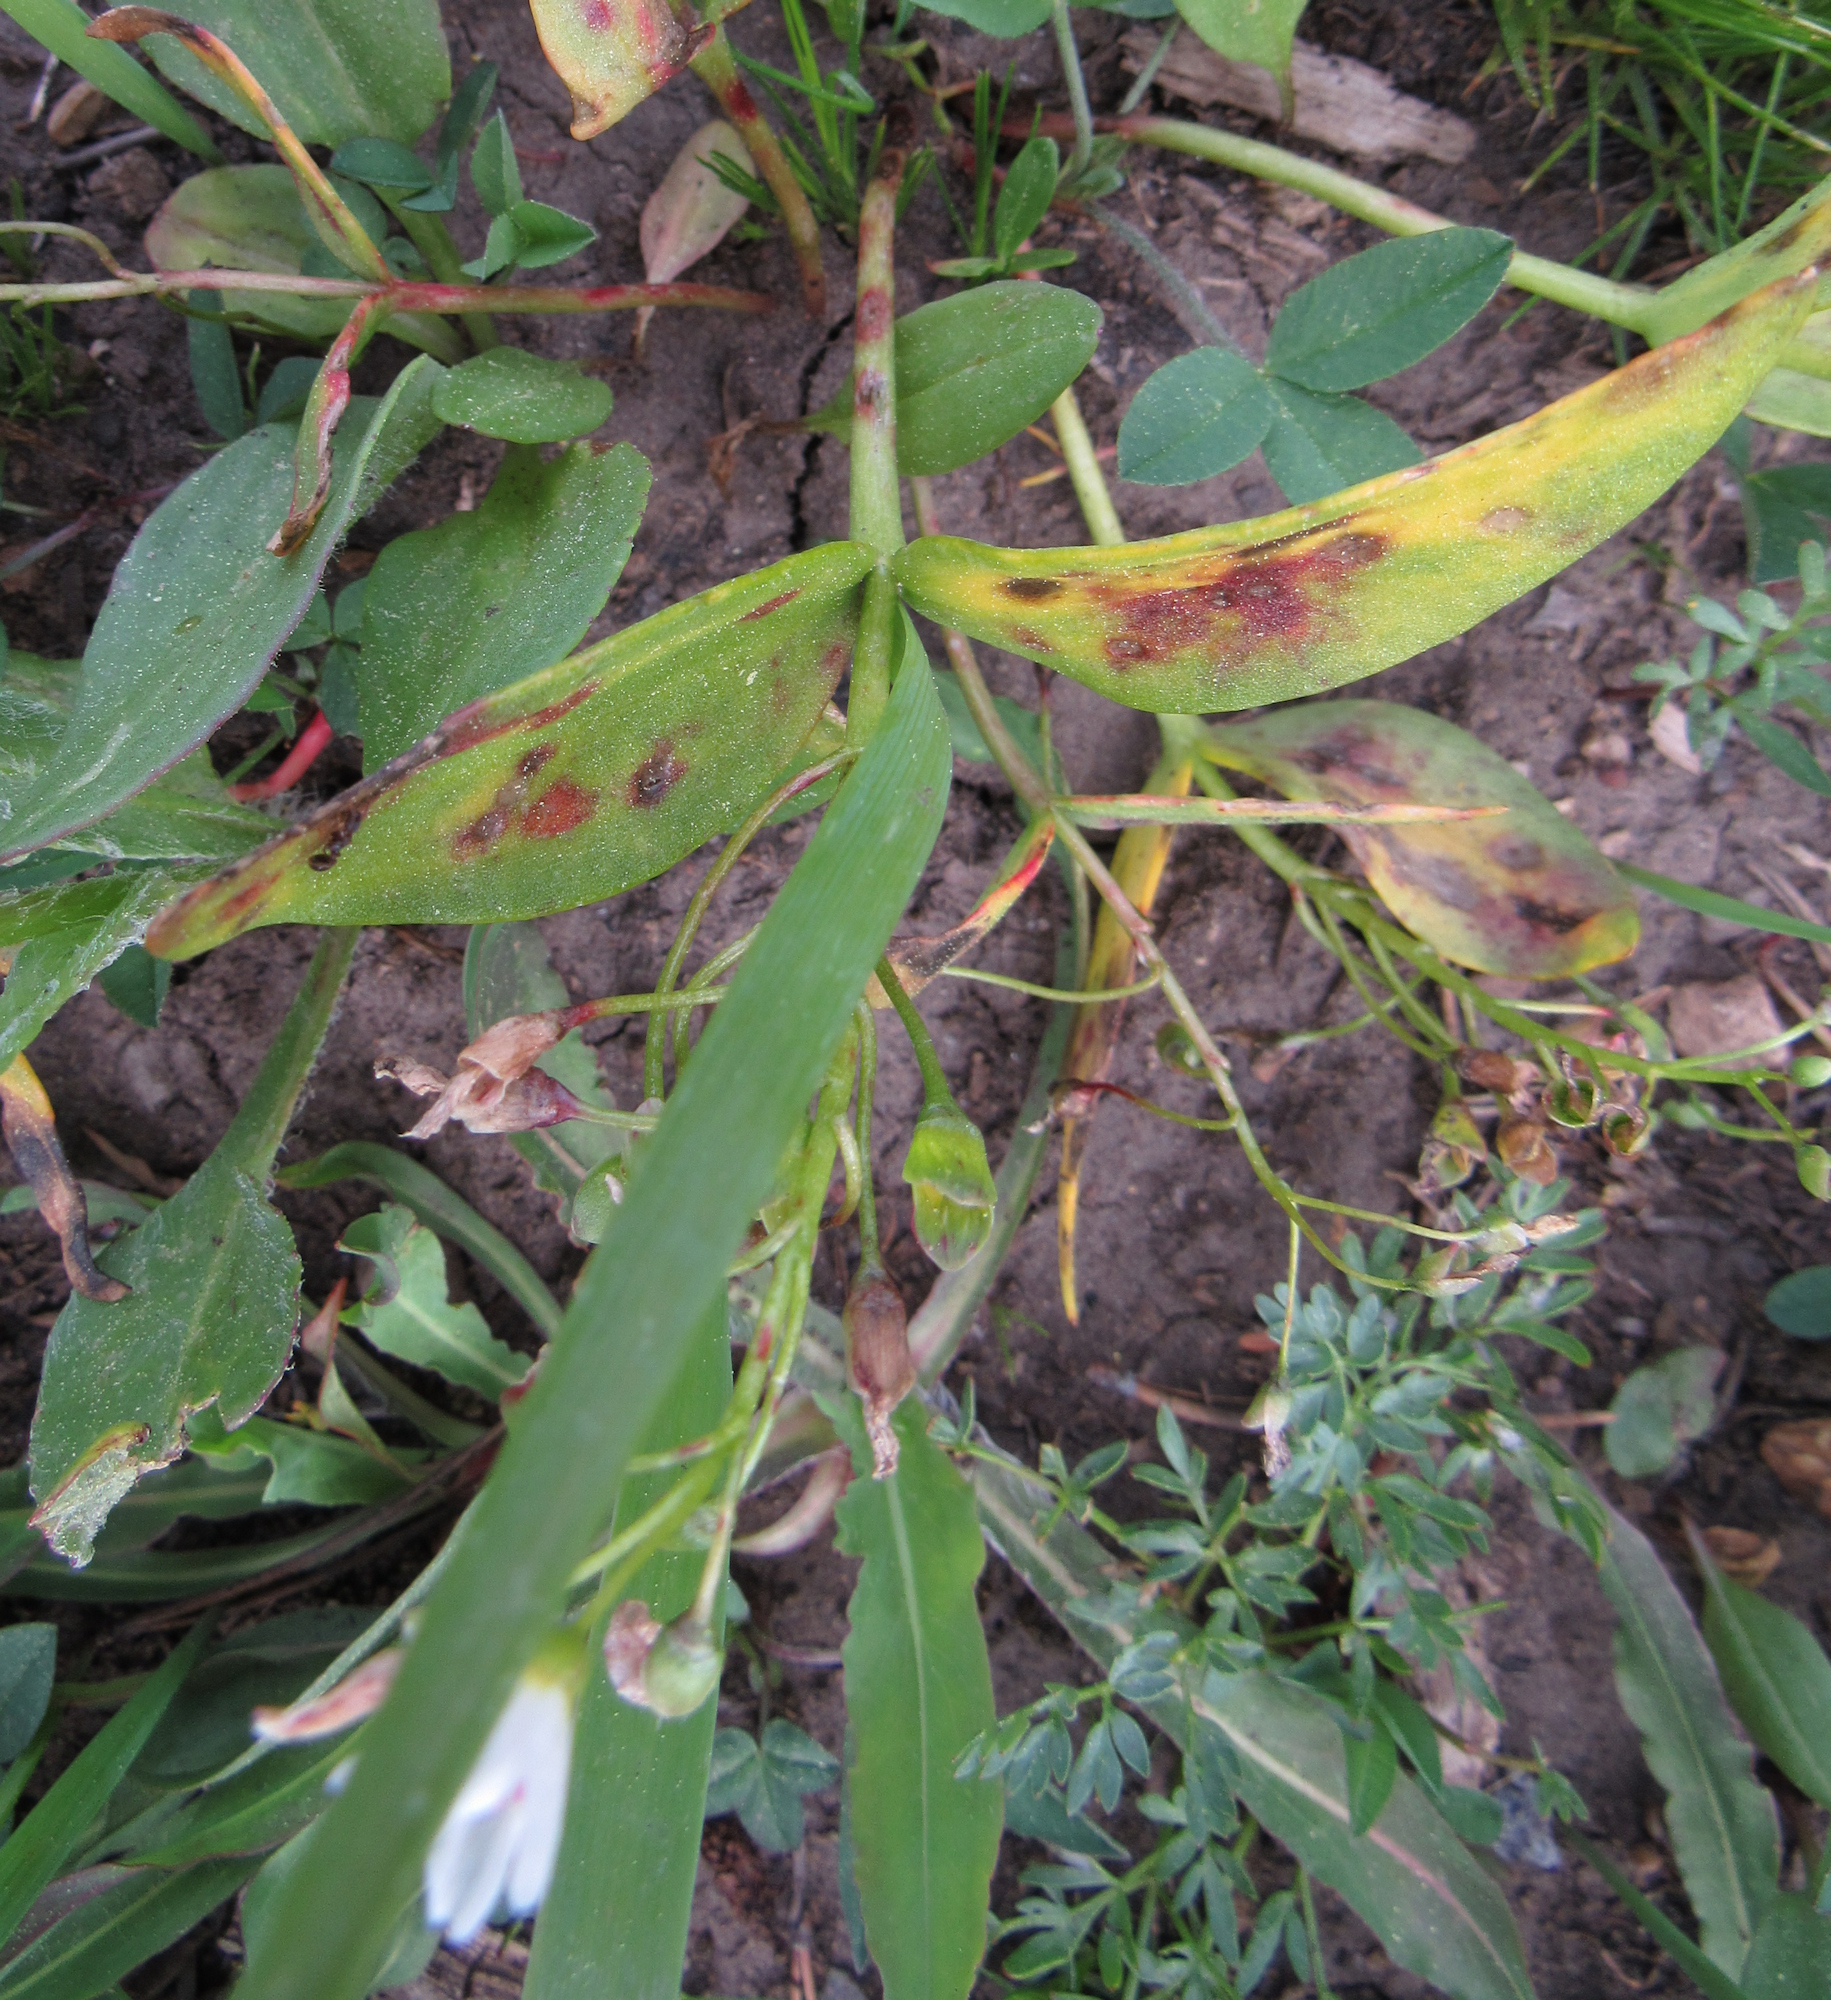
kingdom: Plantae
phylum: Tracheophyta
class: Magnoliopsida
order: Caryophyllales
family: Montiaceae
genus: Claytonia
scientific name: Claytonia lanceolata
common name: Western spring-beauty
